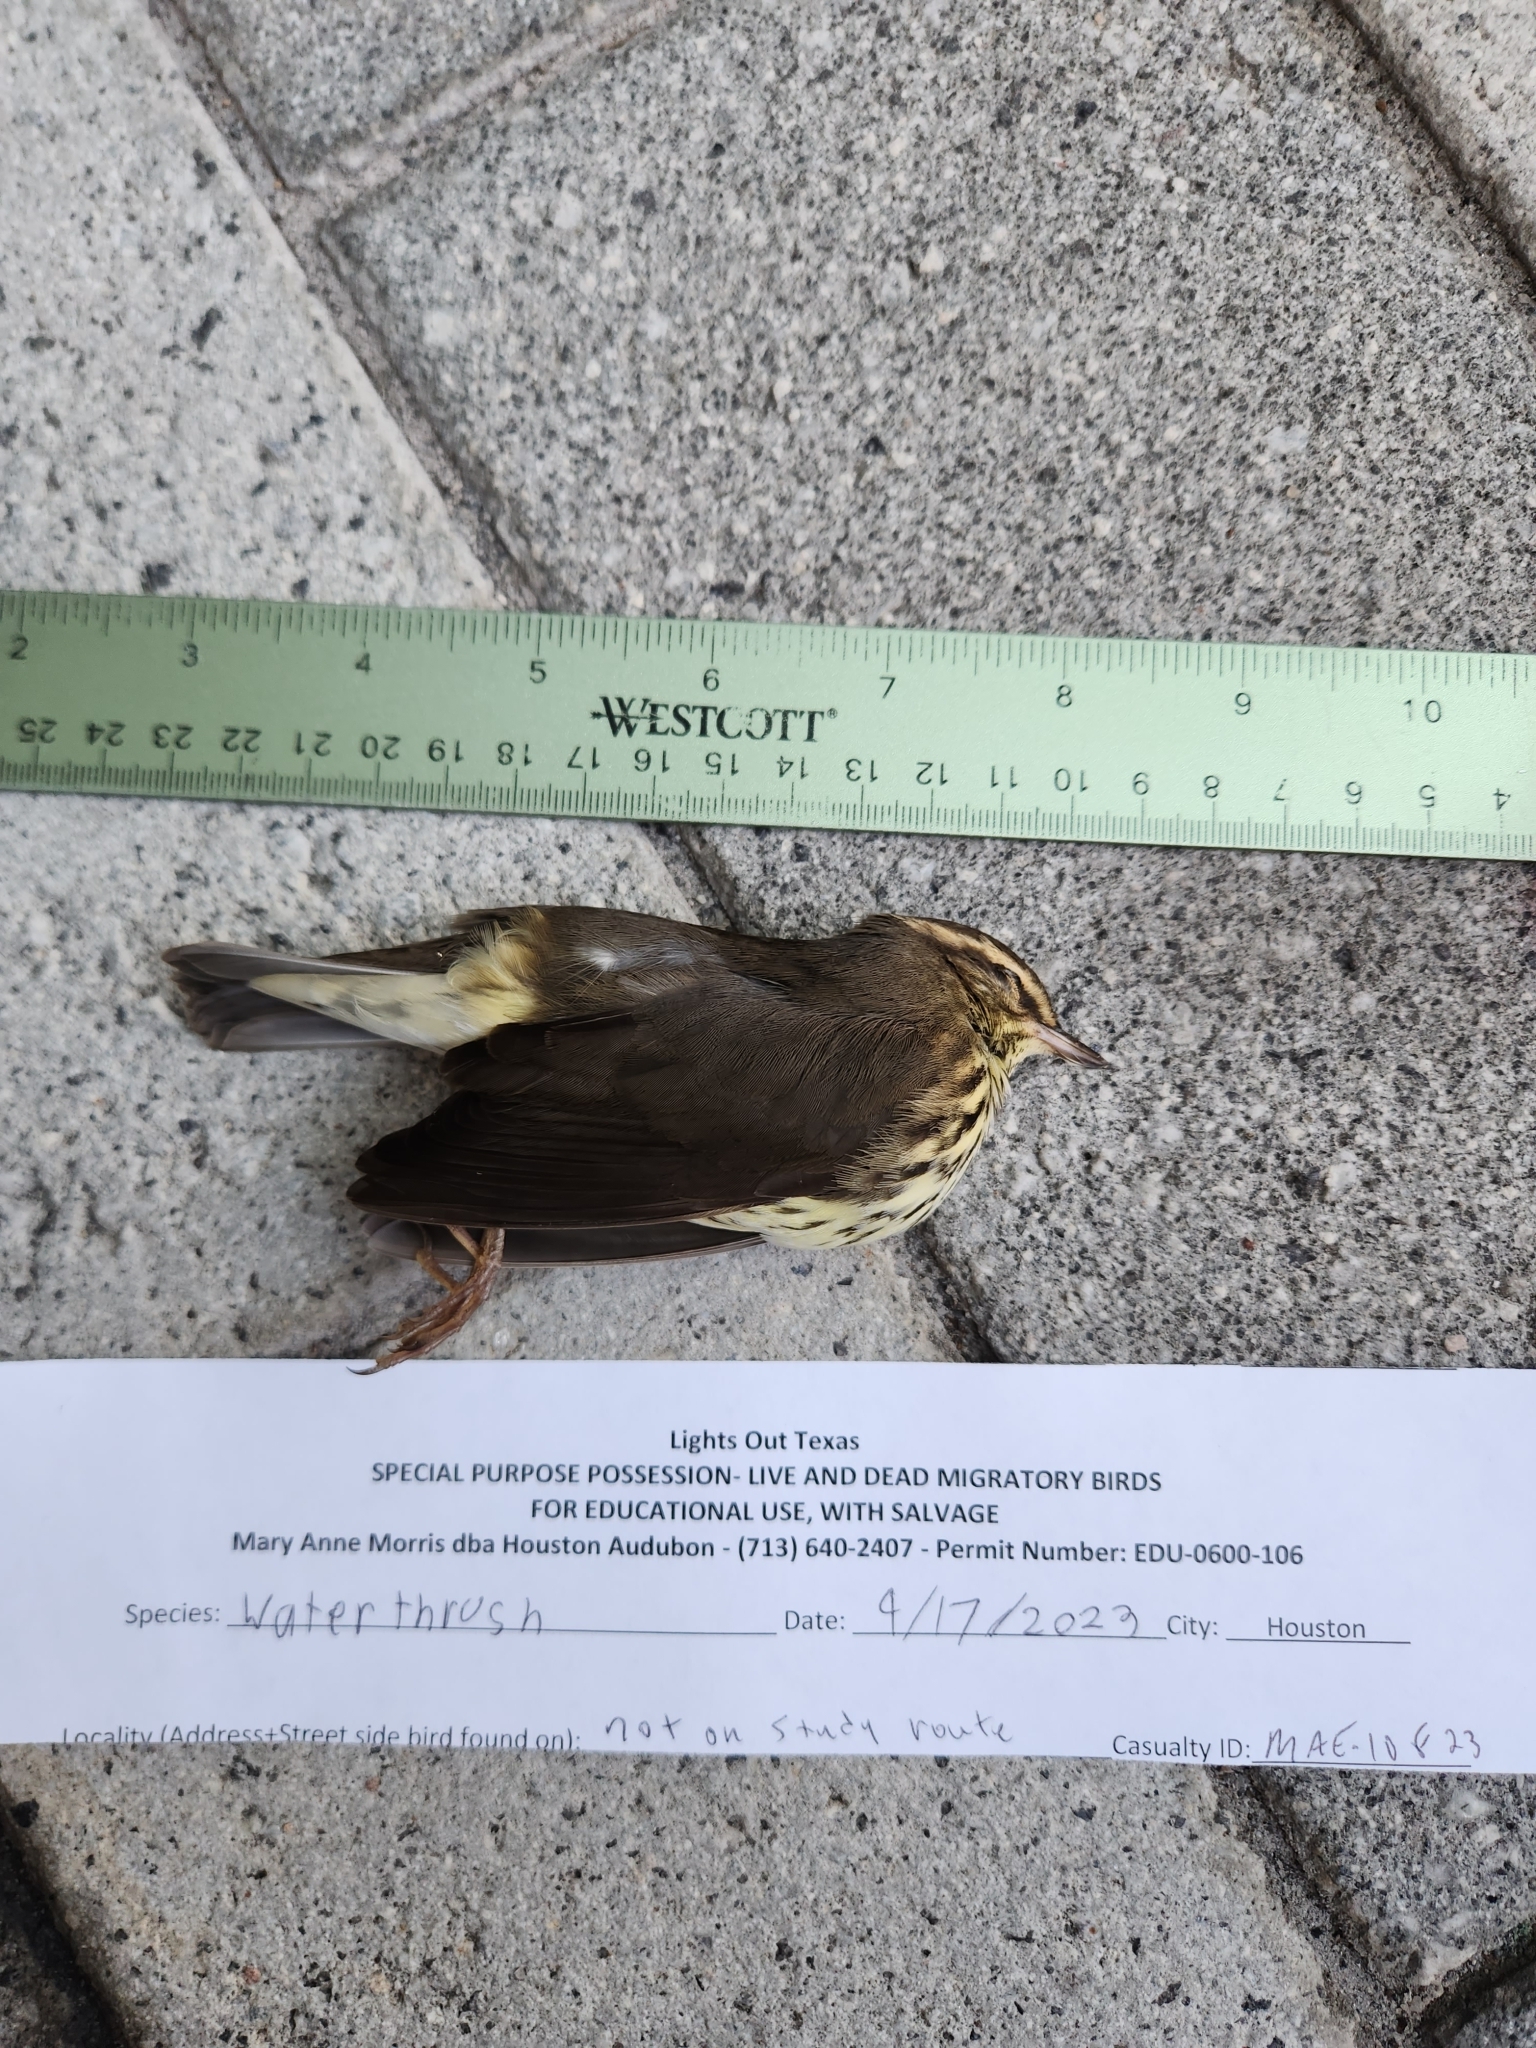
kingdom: Animalia
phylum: Chordata
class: Aves
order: Passeriformes
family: Parulidae
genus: Parkesia
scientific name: Parkesia noveboracensis
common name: Northern waterthrush
